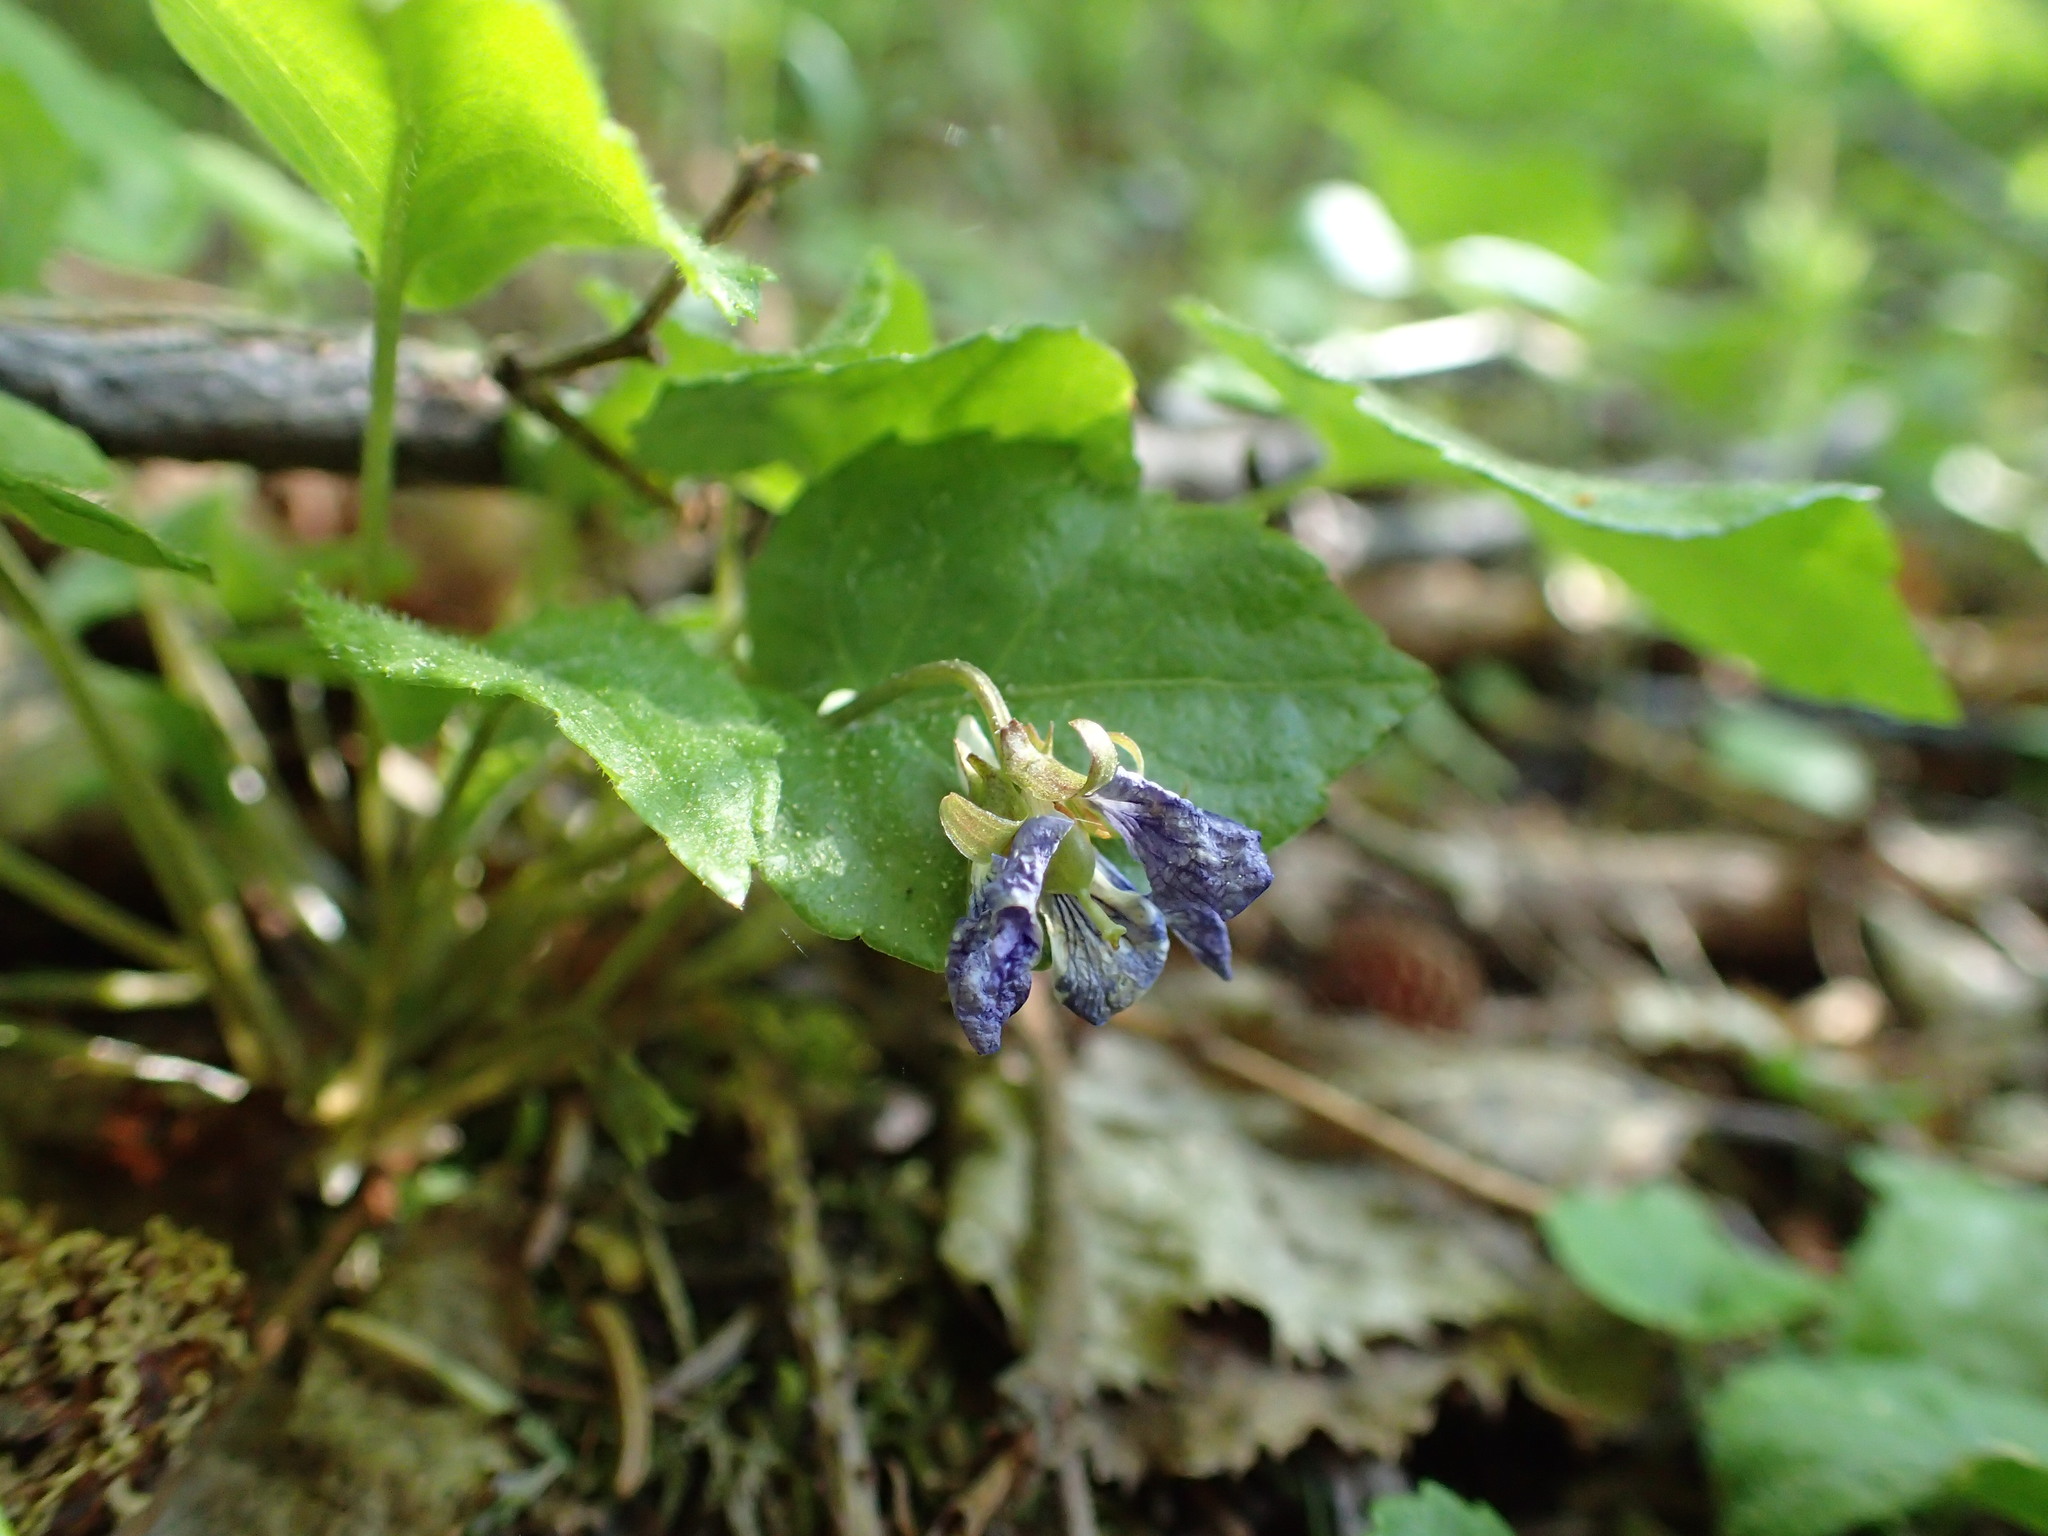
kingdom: Plantae
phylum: Tracheophyta
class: Magnoliopsida
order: Malpighiales
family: Violaceae
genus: Viola
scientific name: Viola selkirkii
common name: Selkirk's violet
